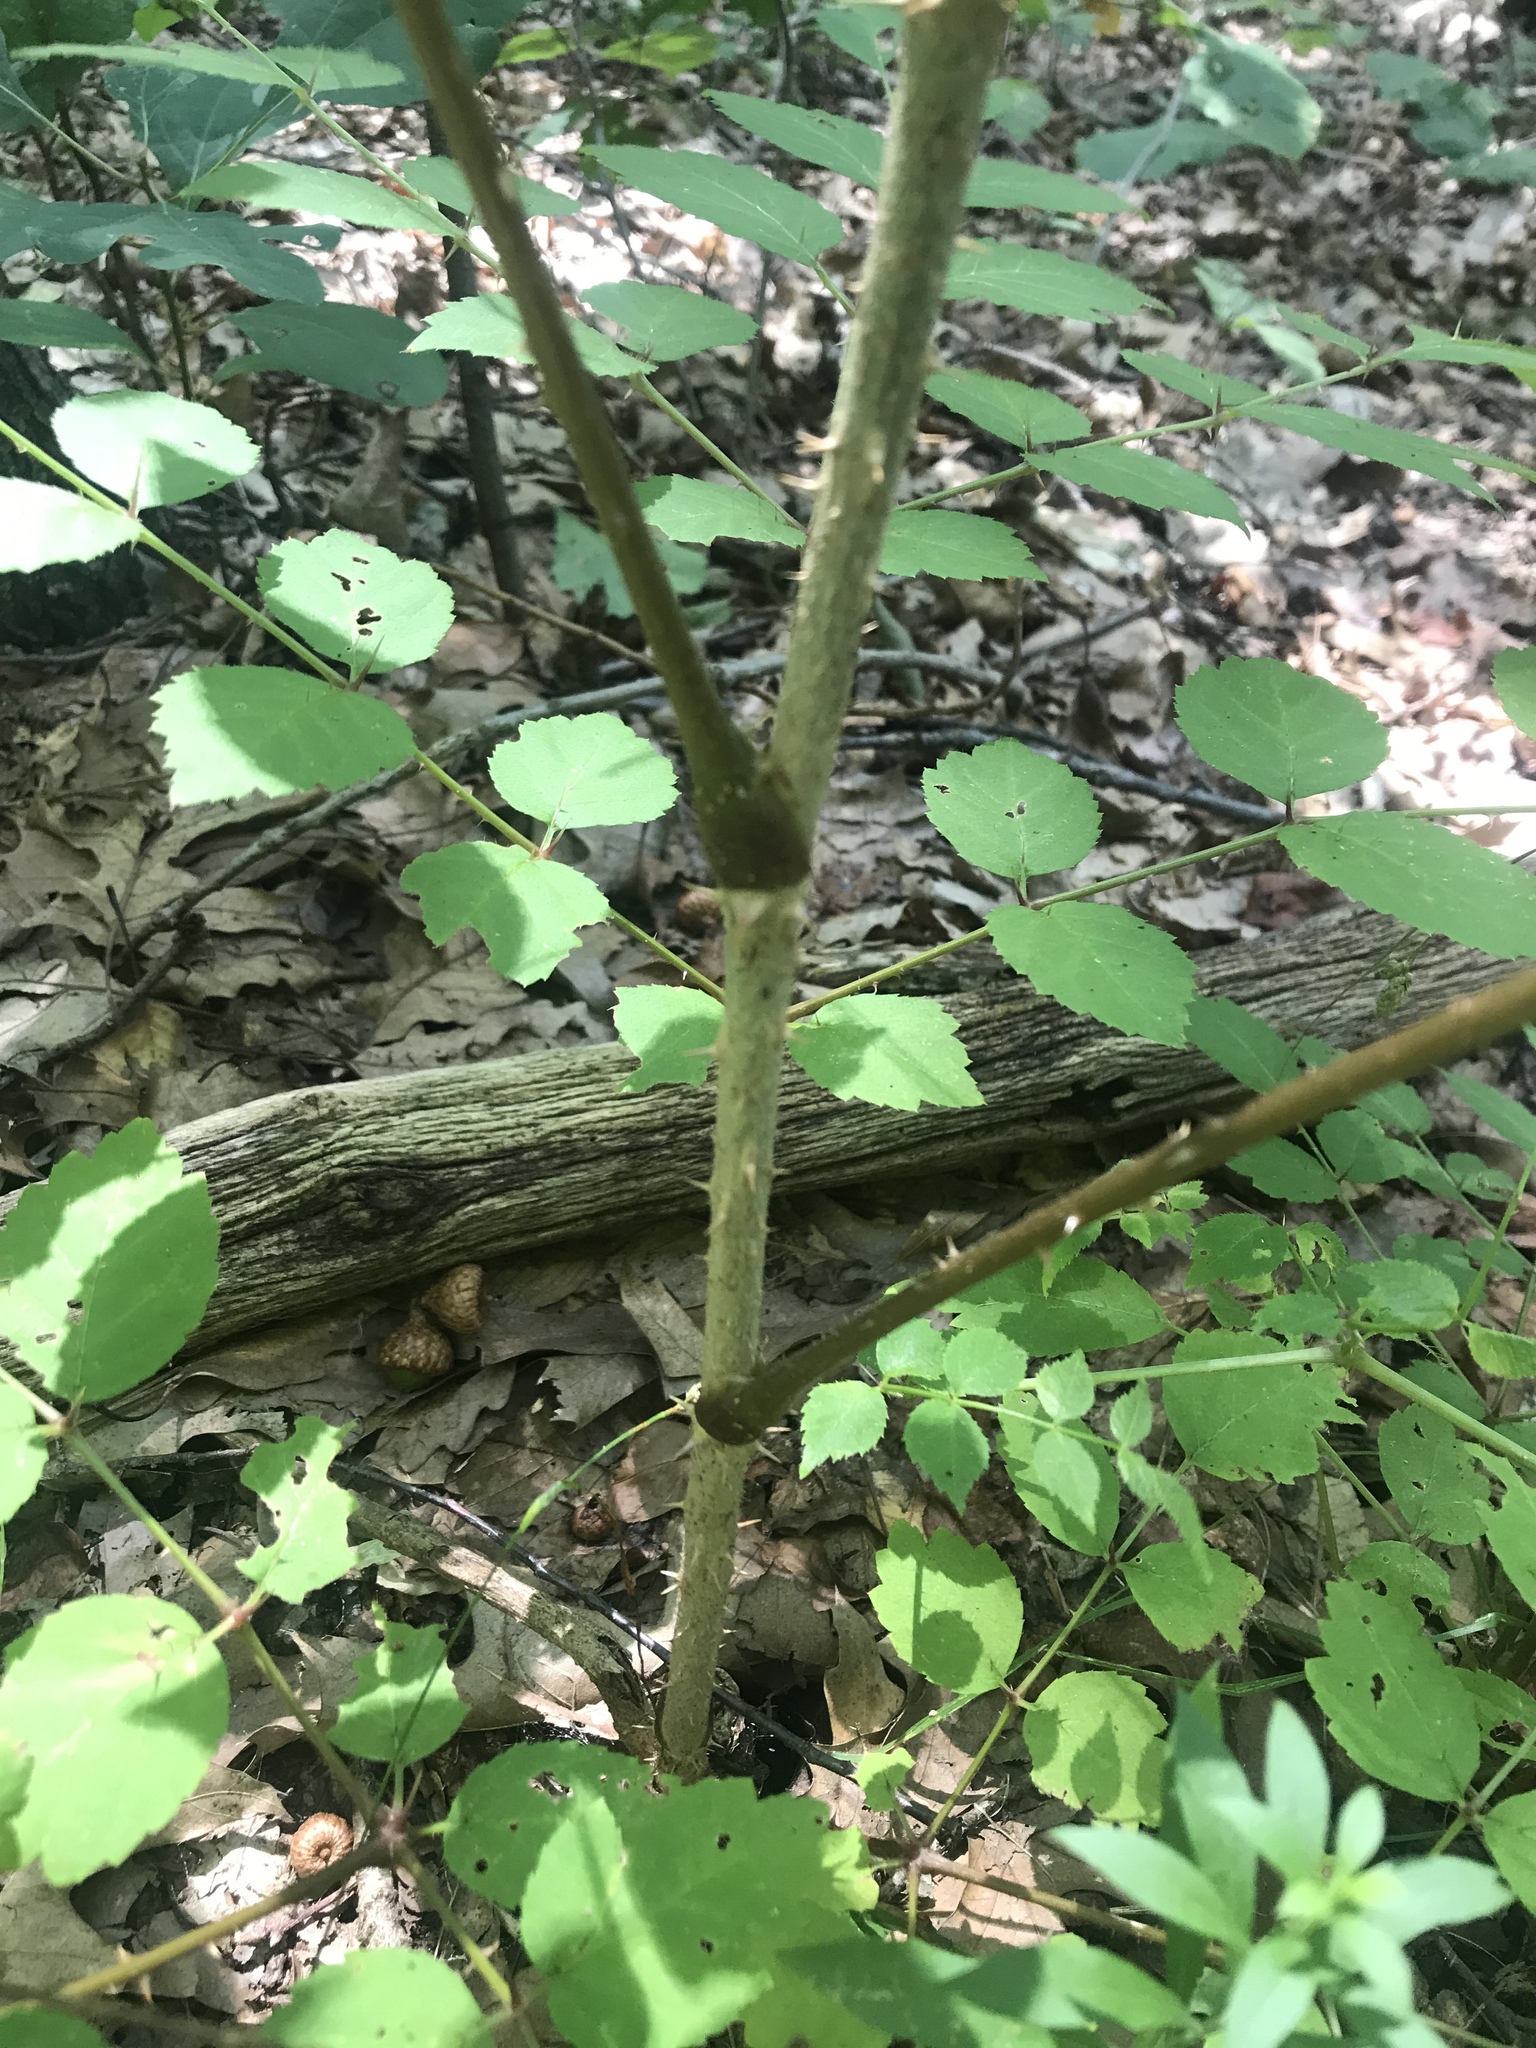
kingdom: Plantae
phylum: Tracheophyta
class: Magnoliopsida
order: Apiales
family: Araliaceae
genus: Aralia
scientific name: Aralia elata
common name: Japanese angelica-tree
